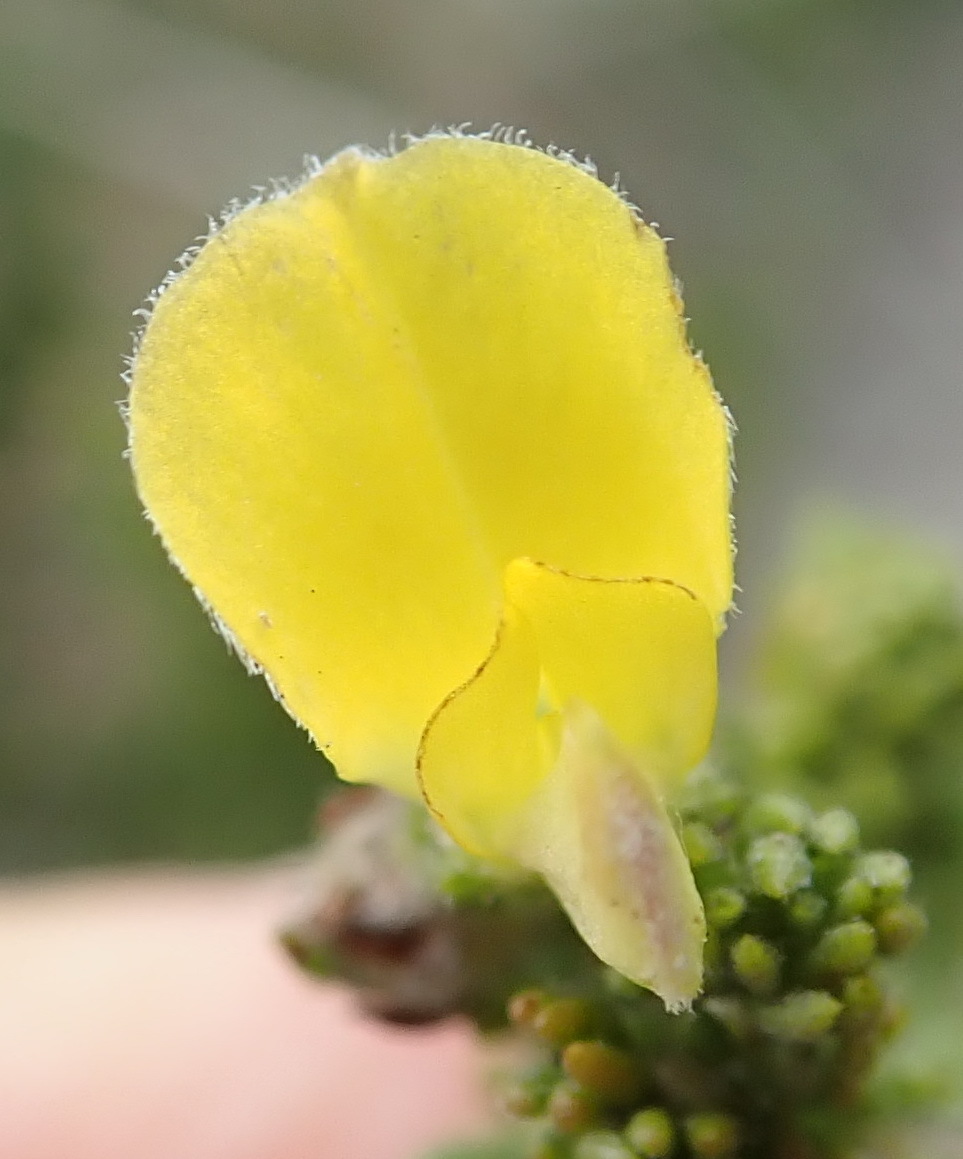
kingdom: Plantae
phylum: Tracheophyta
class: Magnoliopsida
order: Fabales
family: Fabaceae
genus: Aspalathus
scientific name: Aspalathus opaca
